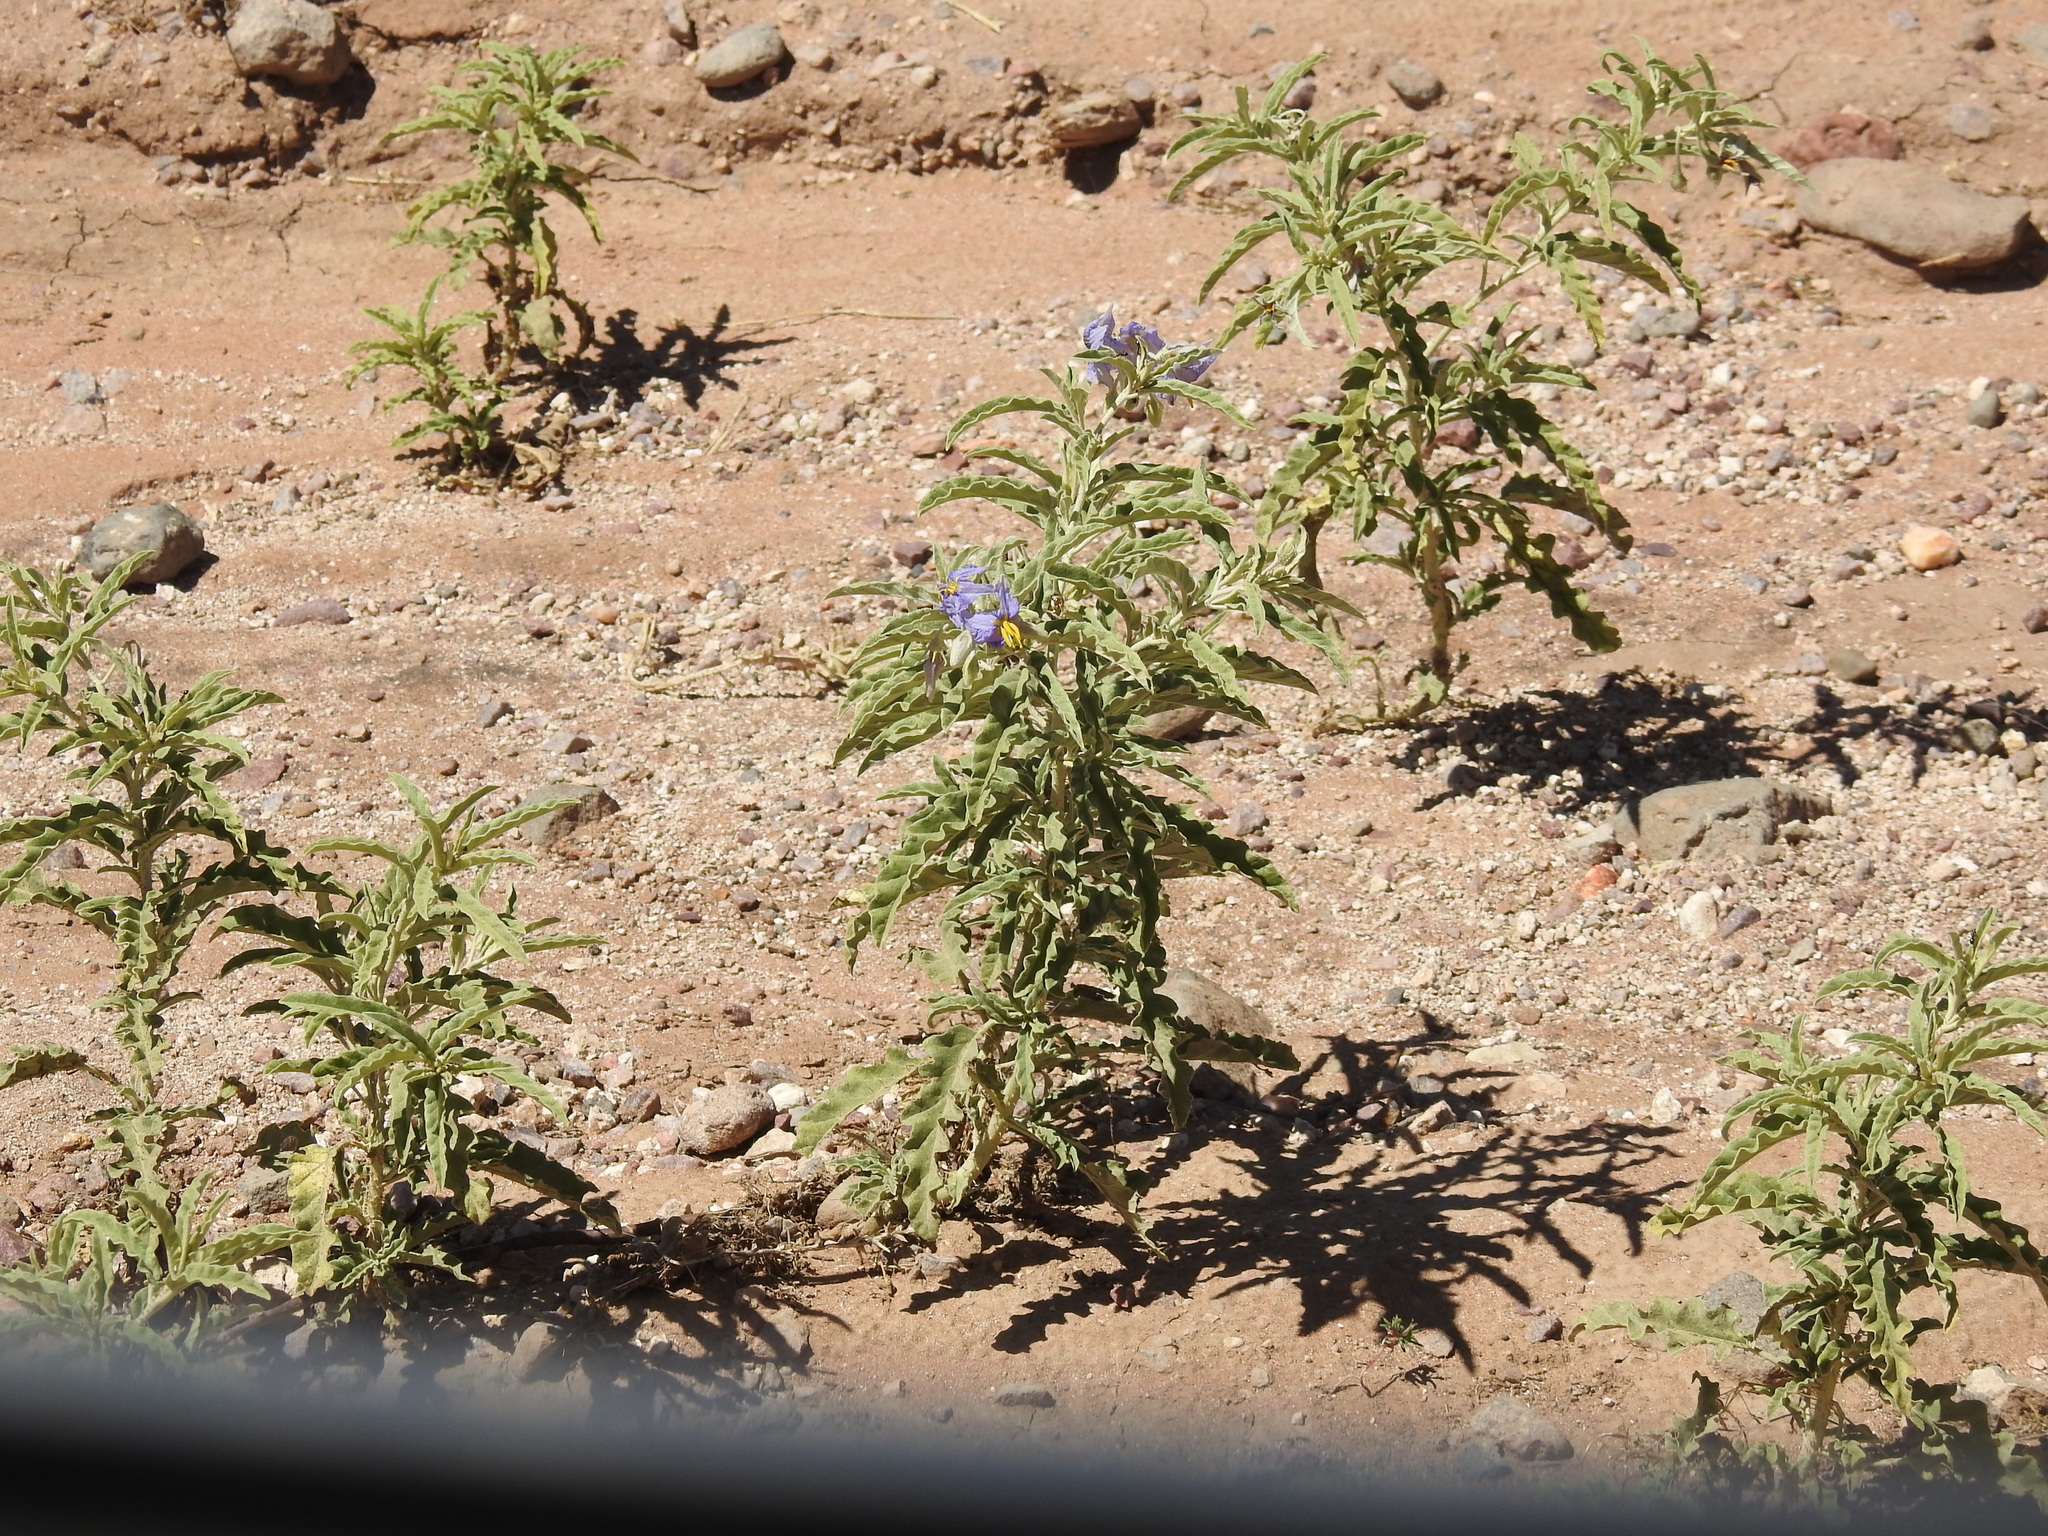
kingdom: Plantae
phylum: Tracheophyta
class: Magnoliopsida
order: Solanales
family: Solanaceae
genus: Solanum
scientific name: Solanum elaeagnifolium
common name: Silverleaf nightshade
